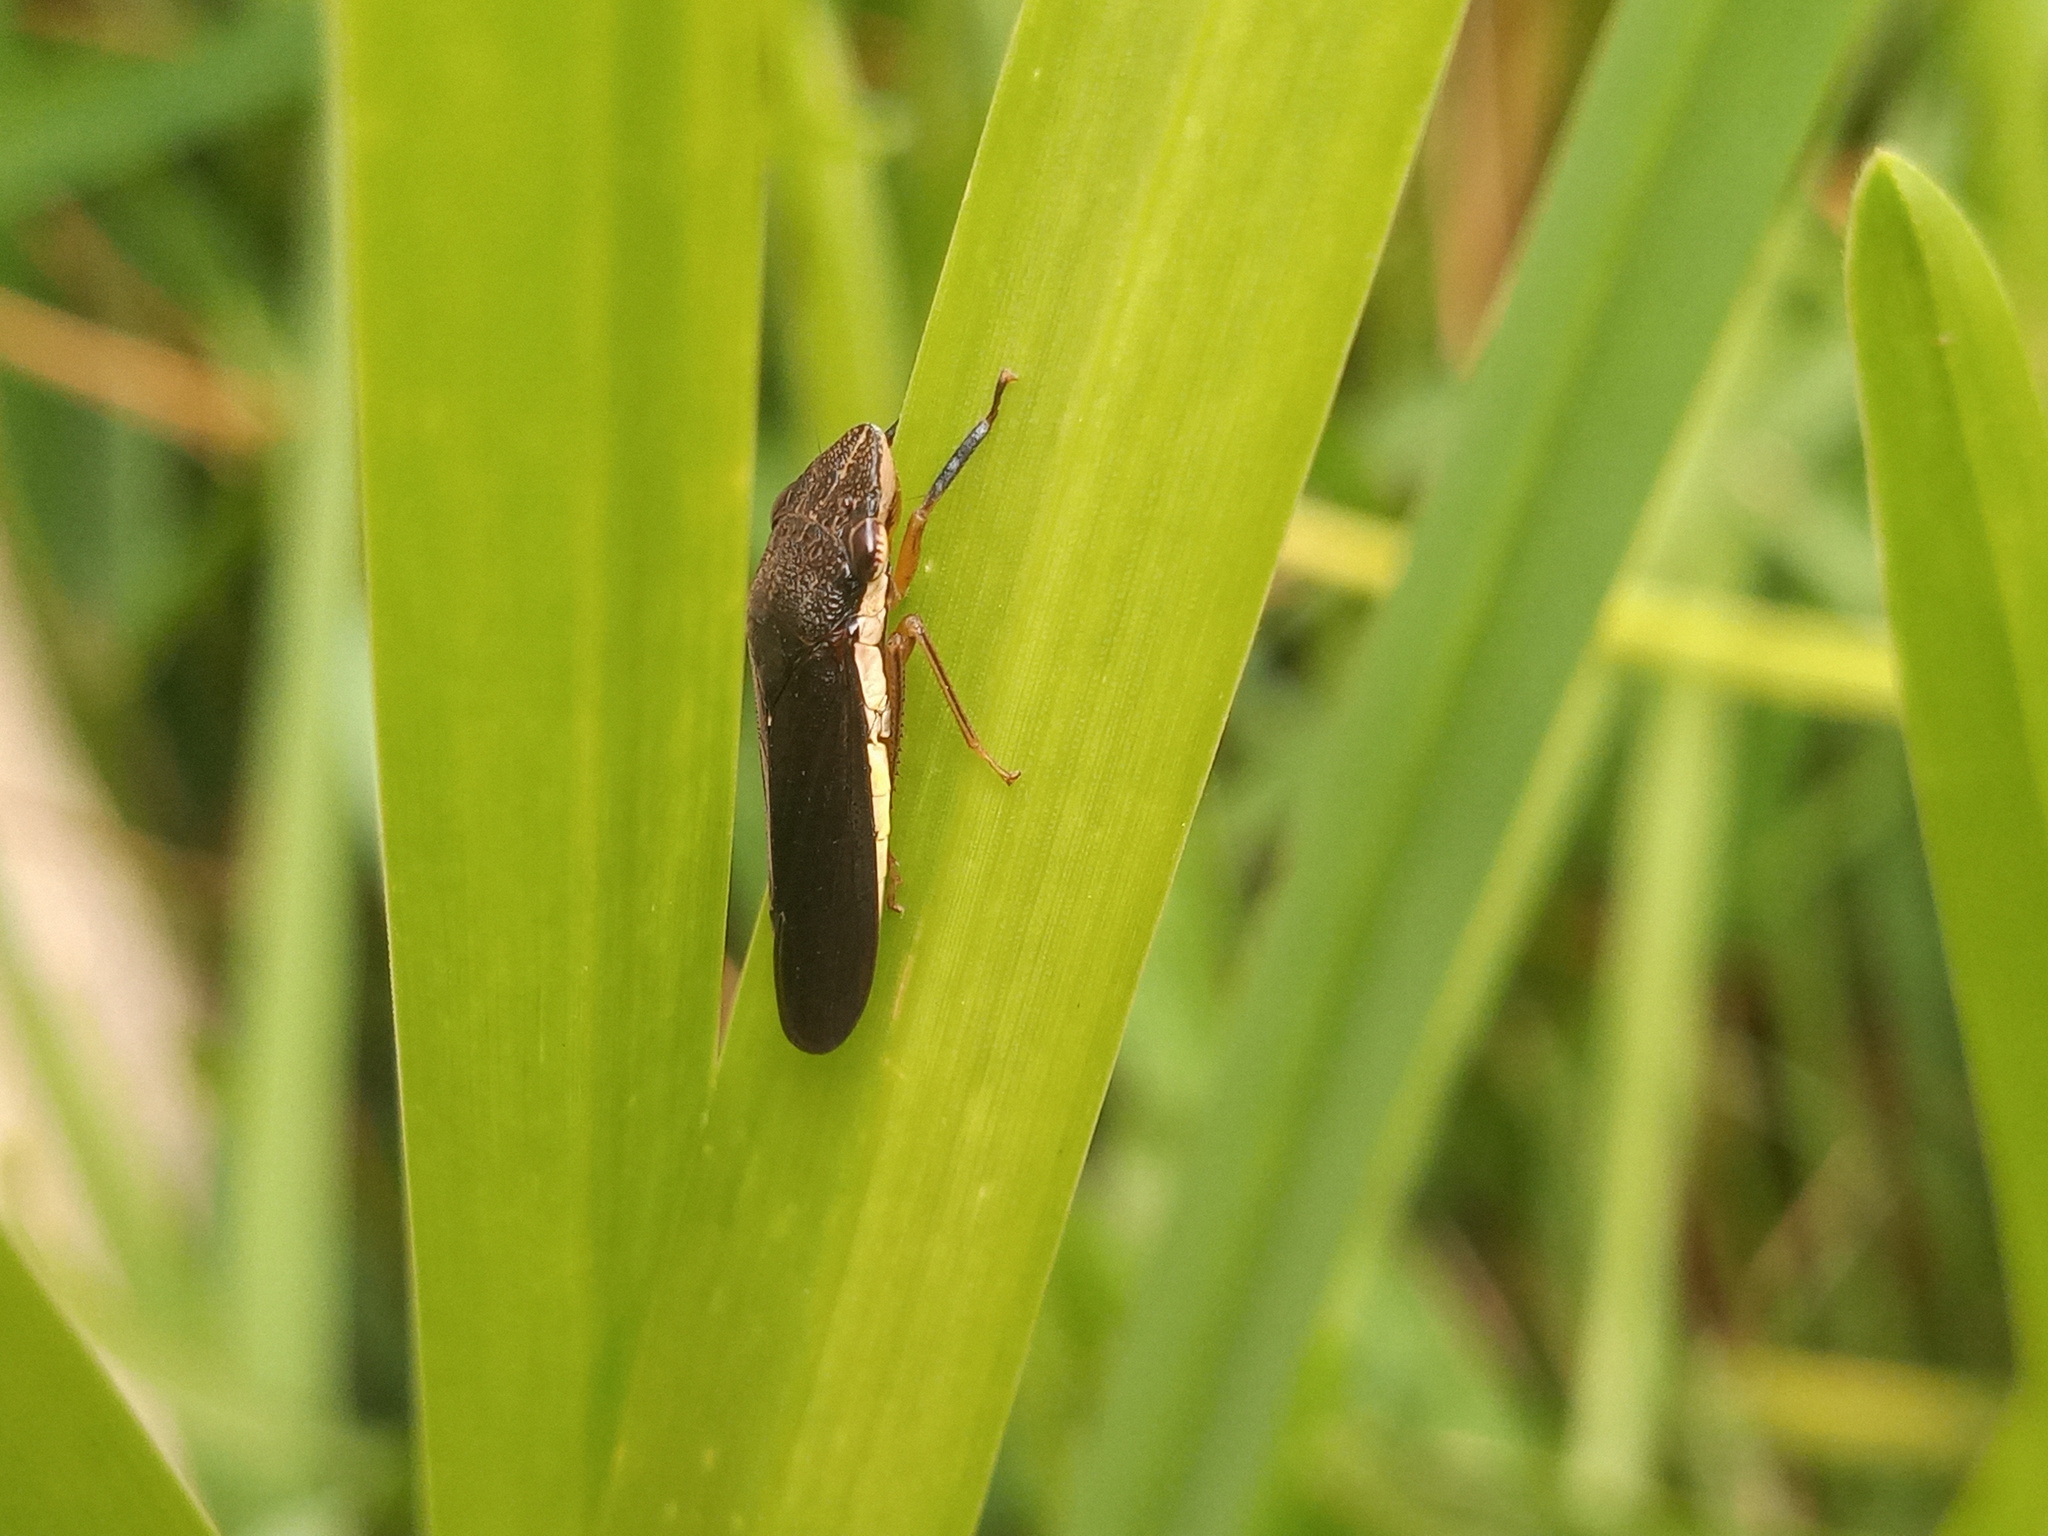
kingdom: Animalia
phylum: Arthropoda
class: Insecta
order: Hemiptera
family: Cicadellidae
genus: Homalodisca
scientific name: Homalodisca insolita
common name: Johnson grass sharpshooter
